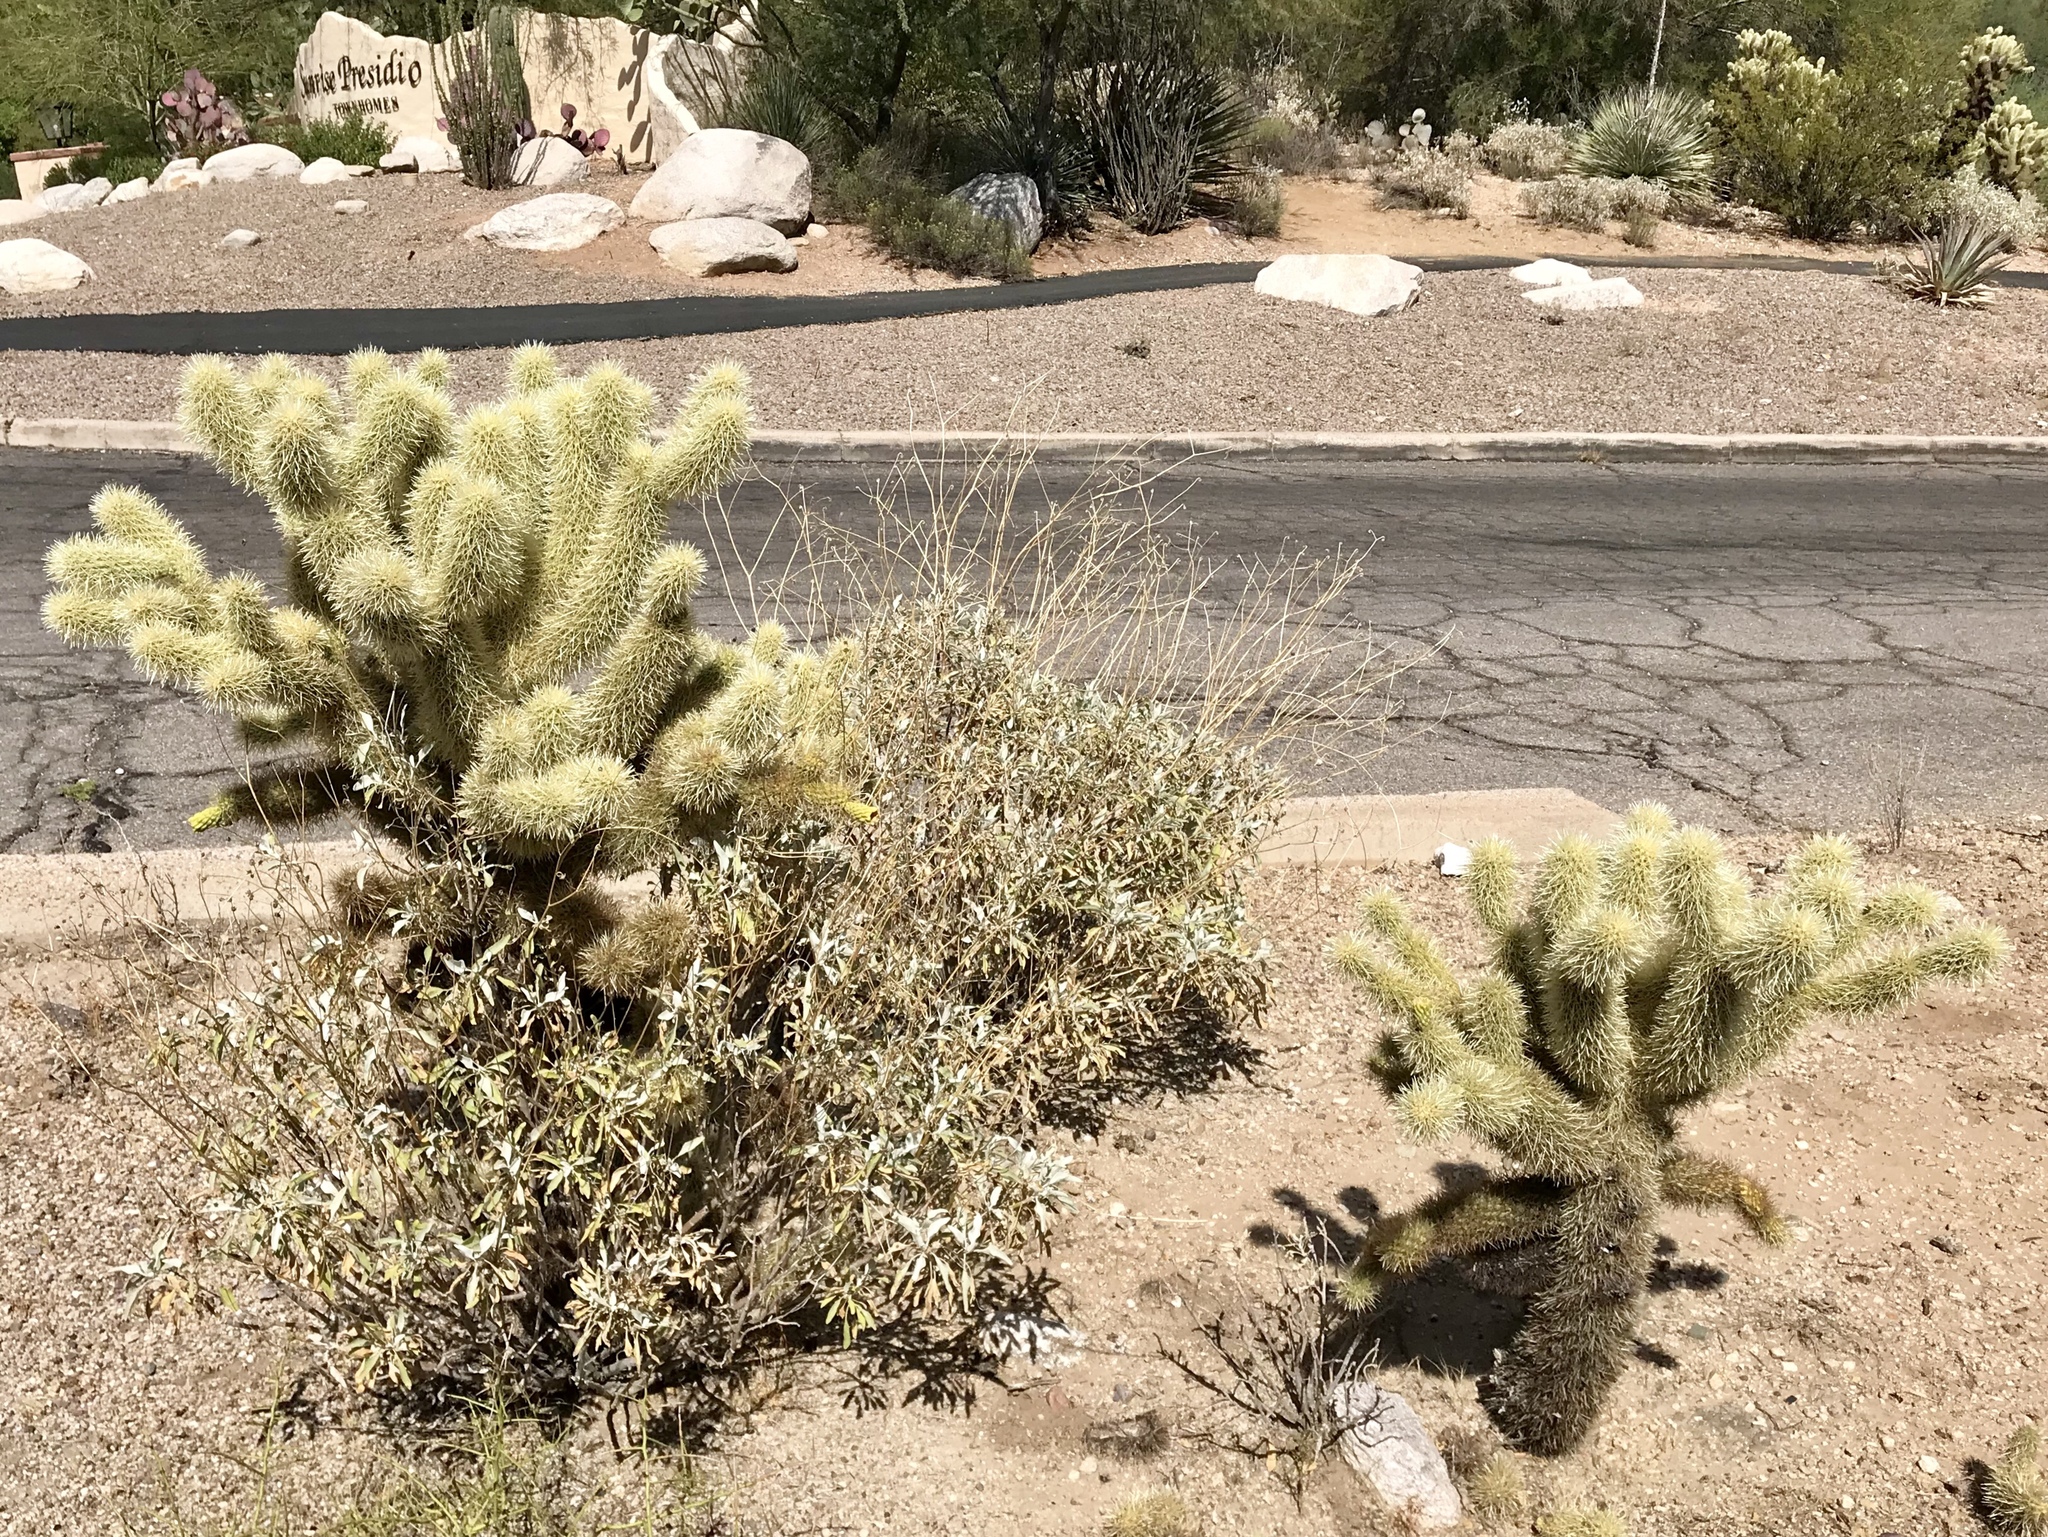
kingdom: Plantae
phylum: Tracheophyta
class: Magnoliopsida
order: Caryophyllales
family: Cactaceae
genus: Cylindropuntia
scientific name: Cylindropuntia fosbergii
